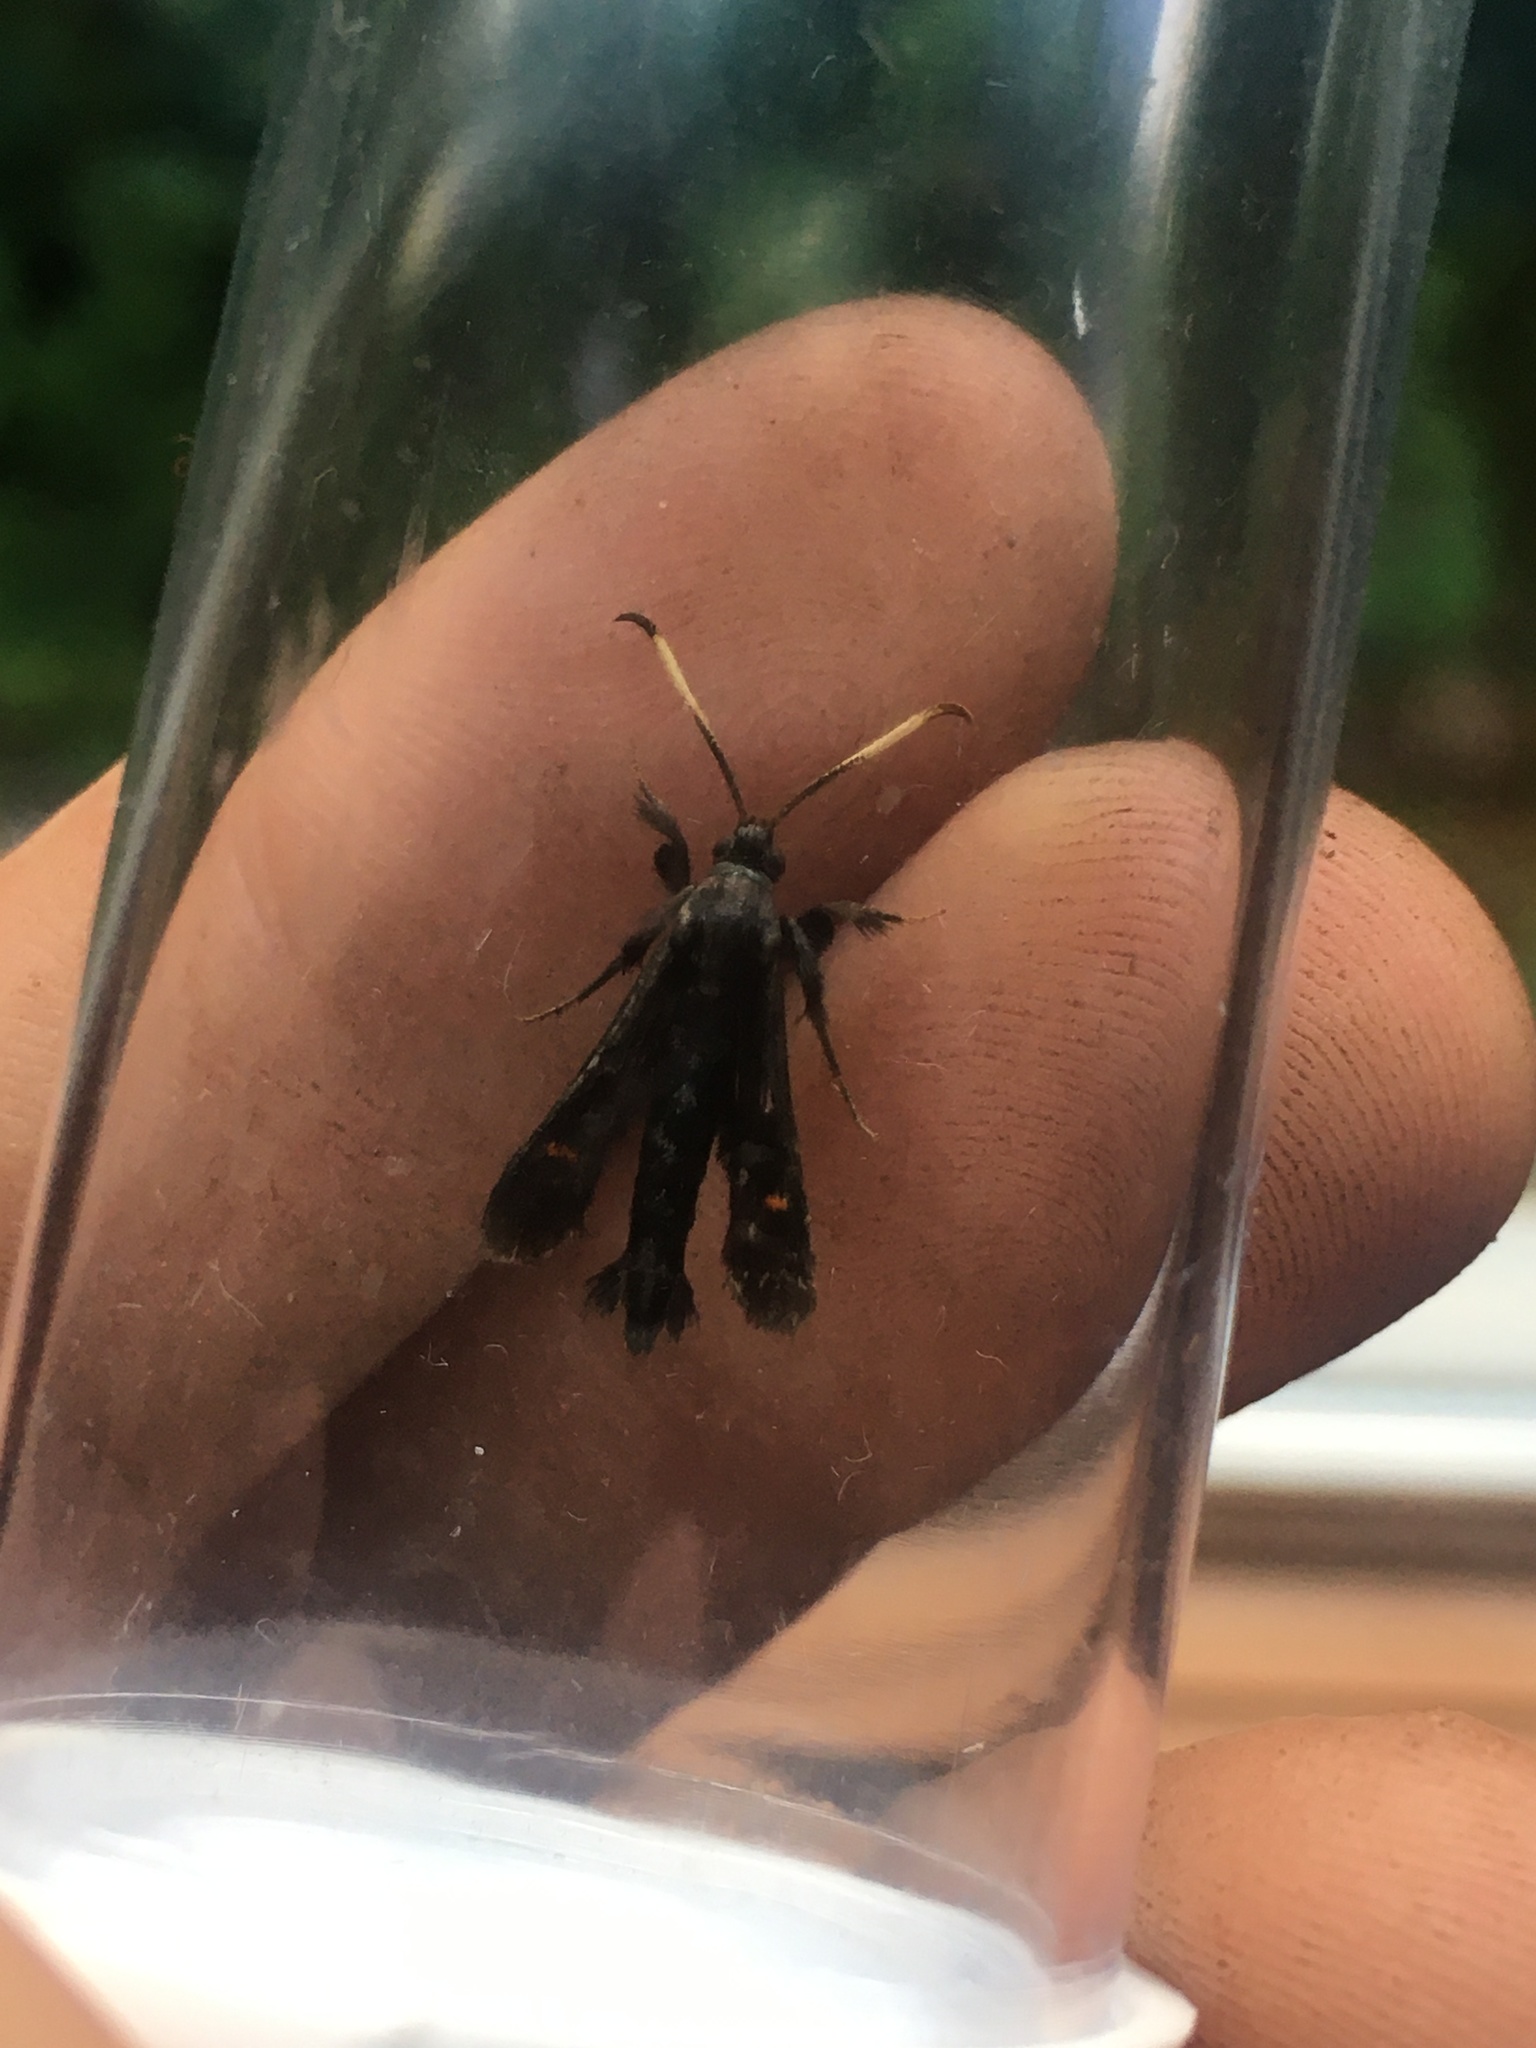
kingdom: Animalia
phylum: Arthropoda
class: Insecta
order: Lepidoptera
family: Sesiidae
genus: Albuna
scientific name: Albuna fraxini
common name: Virginia creeper clearwing
